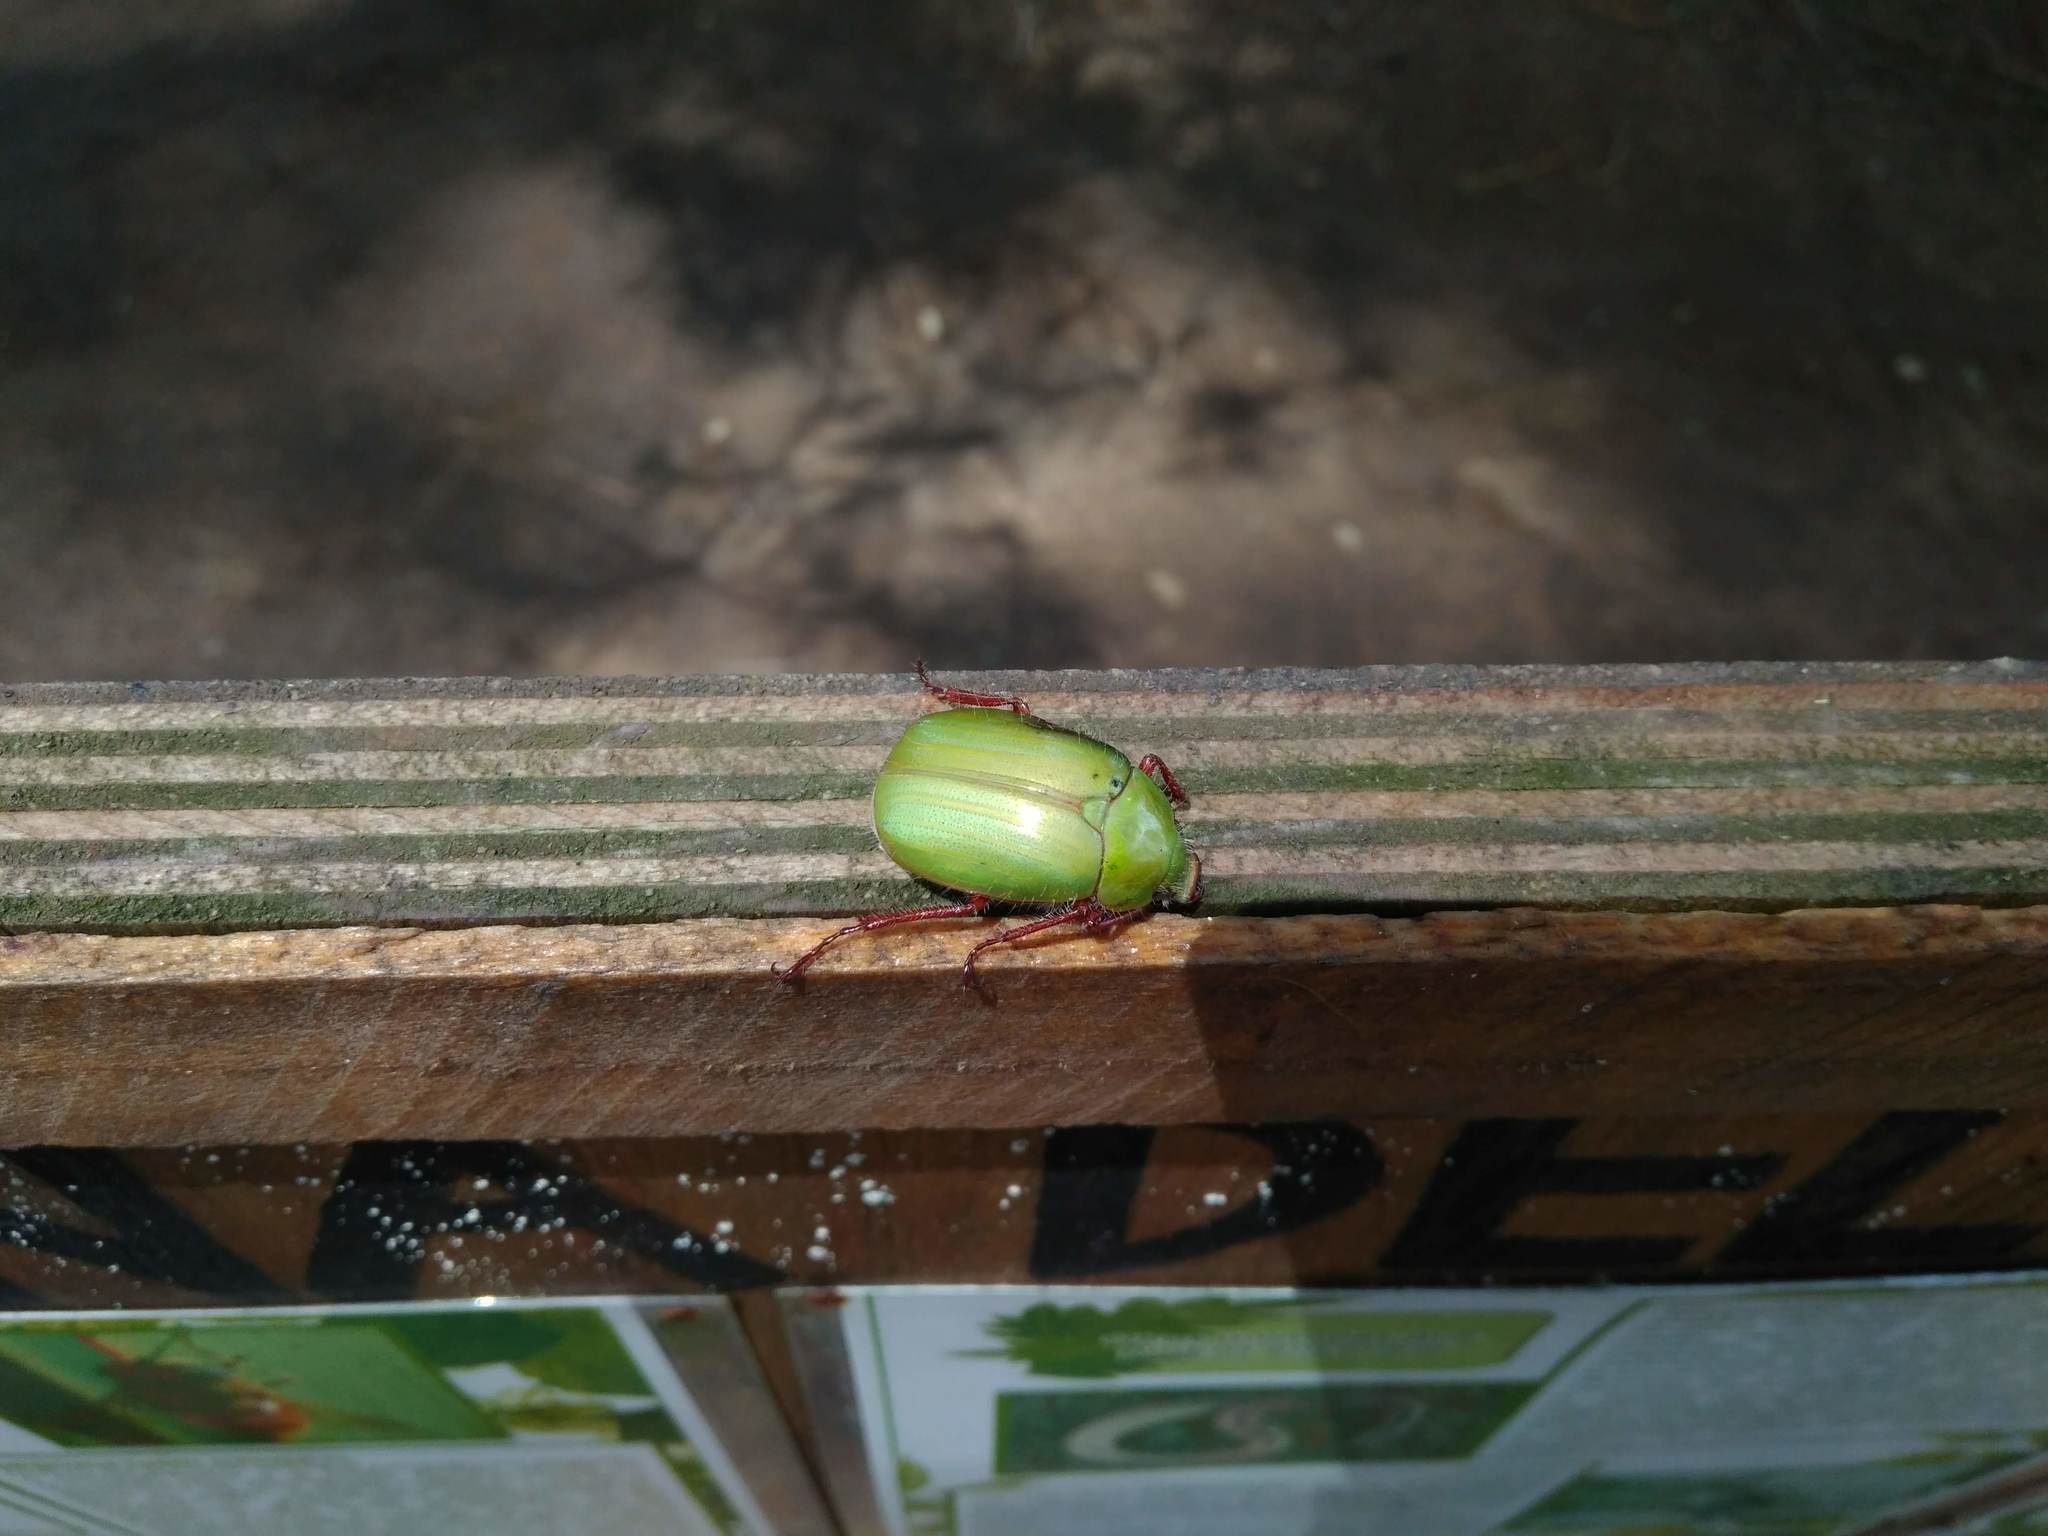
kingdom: Animalia
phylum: Arthropoda
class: Insecta
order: Coleoptera
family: Scarabaeidae
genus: Modialis
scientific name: Modialis prasinella
